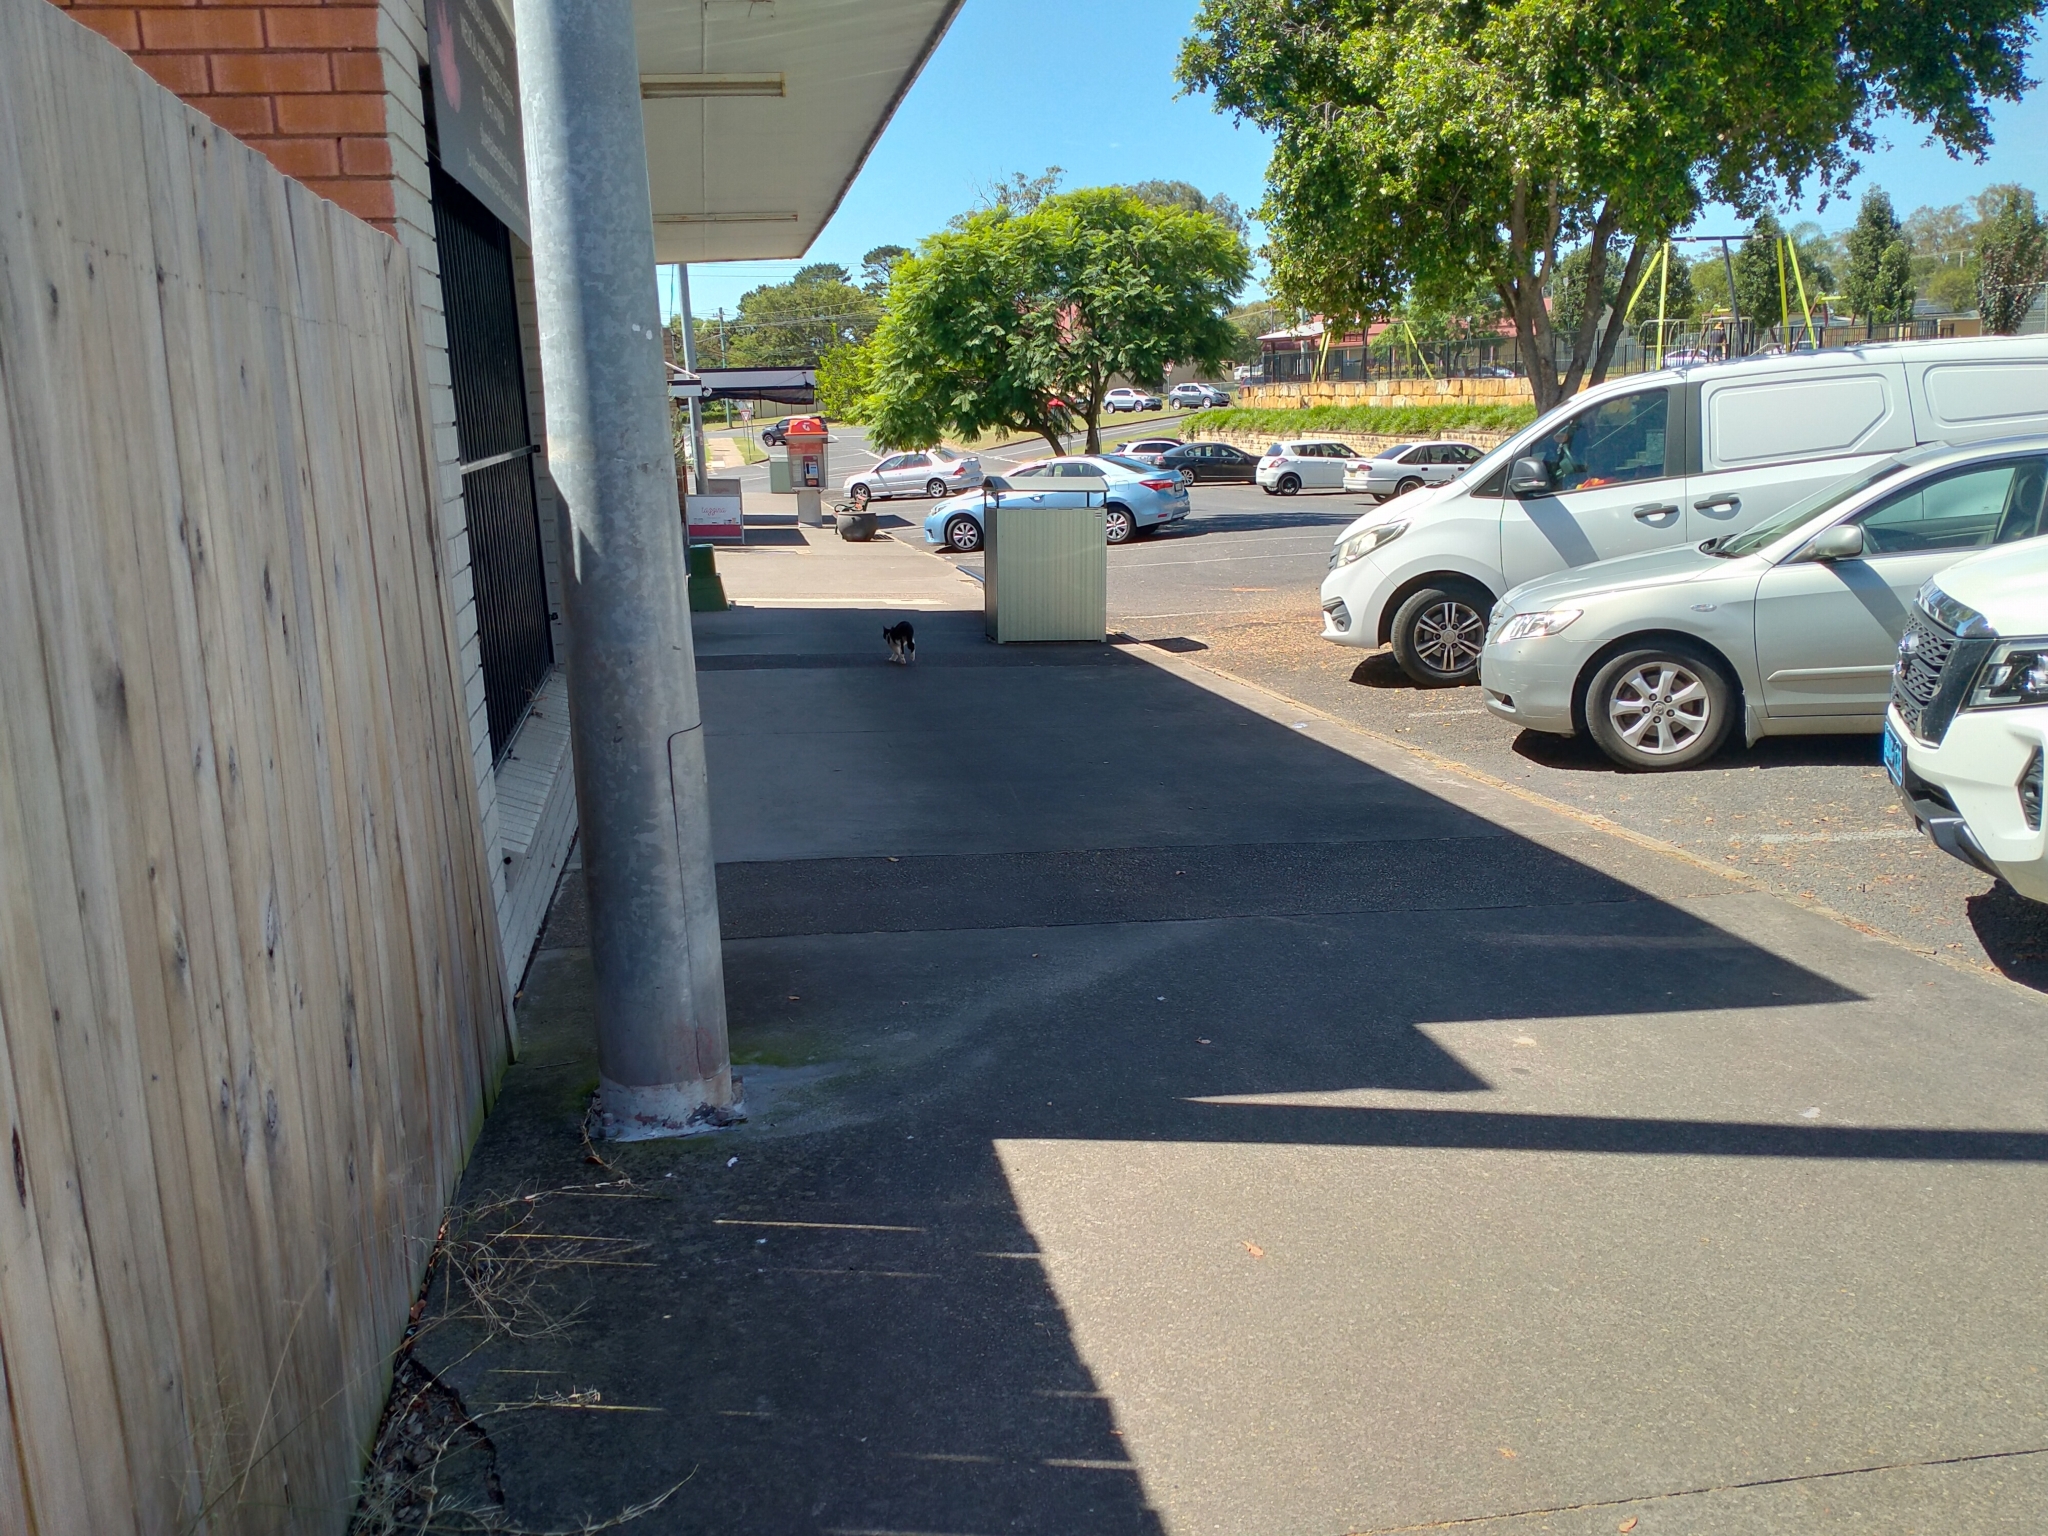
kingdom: Animalia
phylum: Chordata
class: Mammalia
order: Carnivora
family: Felidae
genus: Felis
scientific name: Felis catus
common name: Domestic cat
